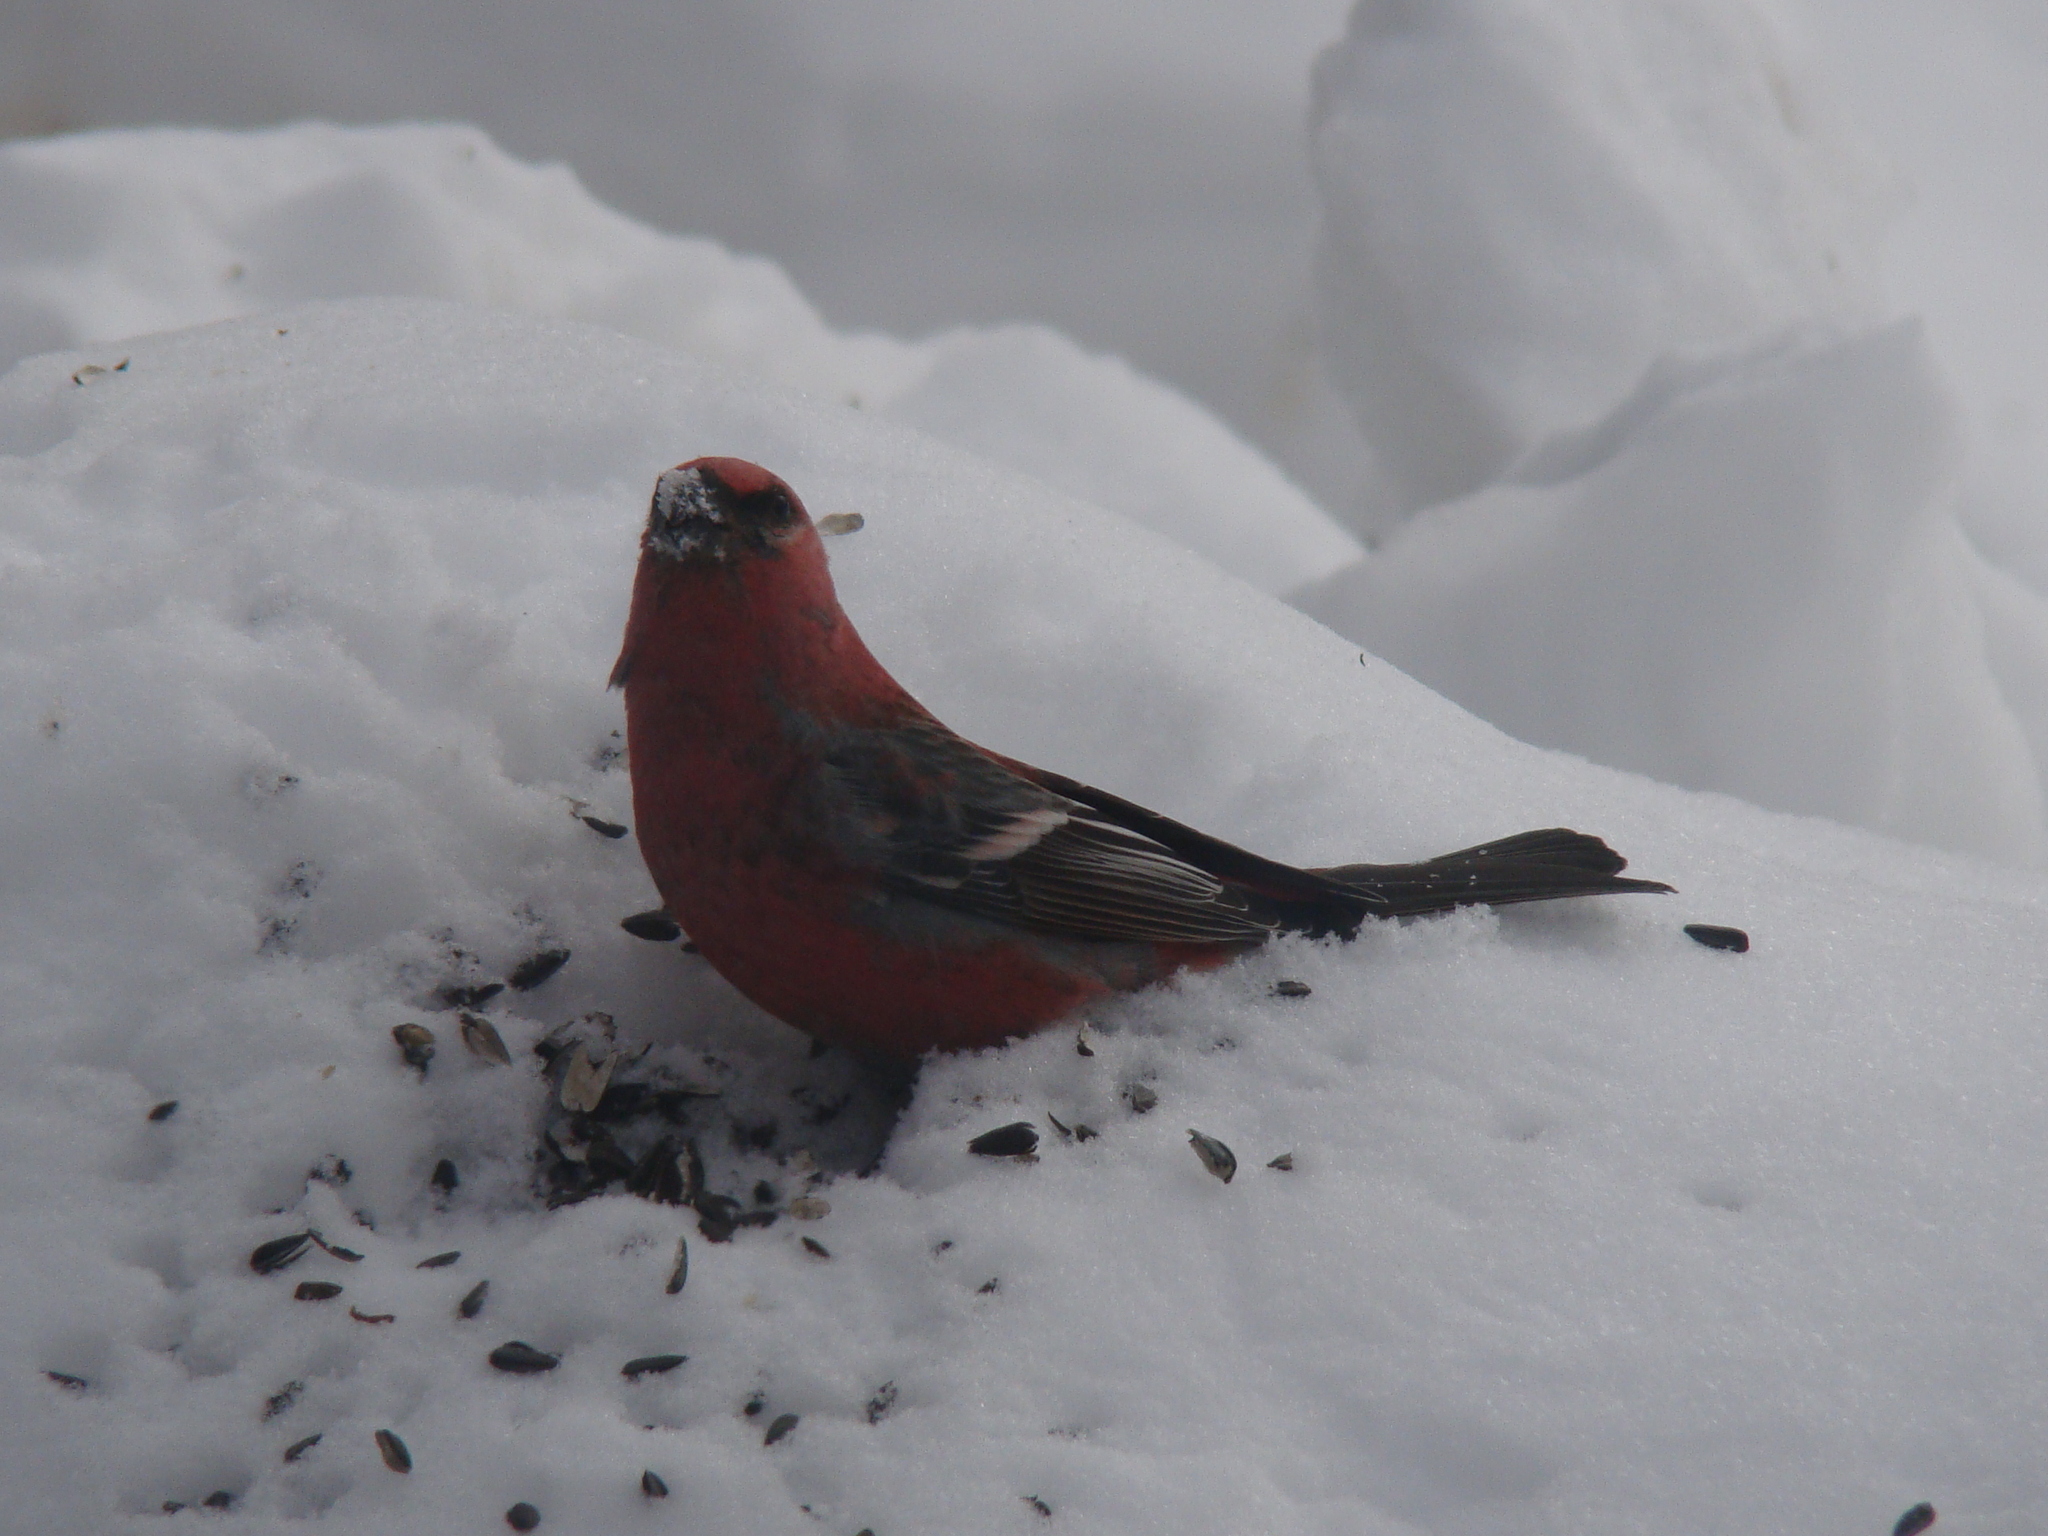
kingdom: Animalia
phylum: Chordata
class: Aves
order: Passeriformes
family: Fringillidae
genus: Pinicola
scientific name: Pinicola enucleator
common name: Pine grosbeak
